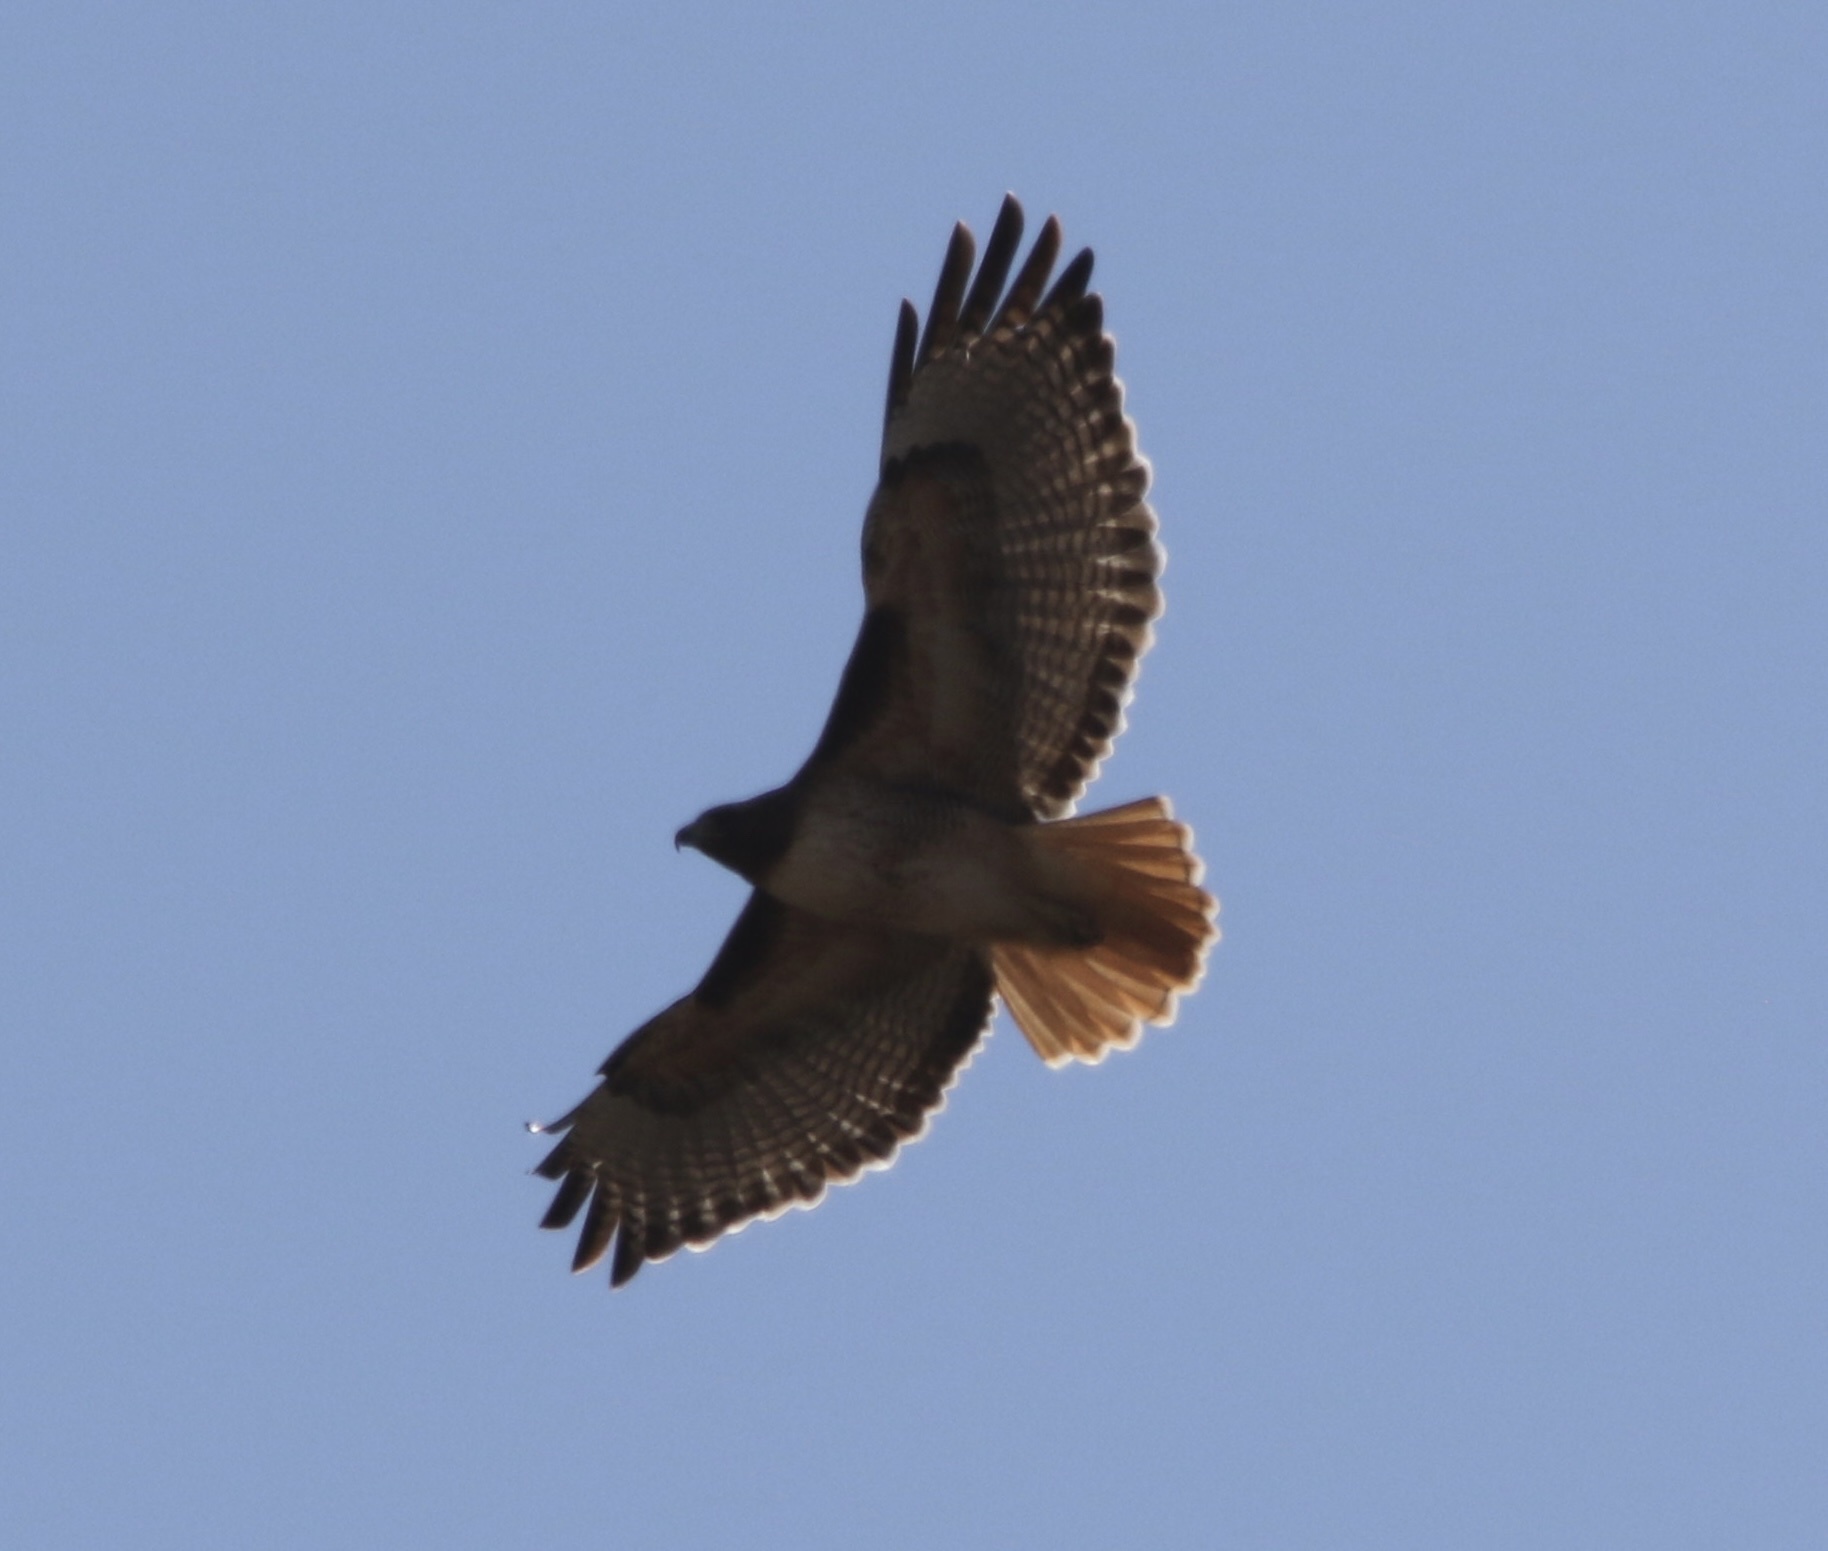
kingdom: Animalia
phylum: Chordata
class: Aves
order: Accipitriformes
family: Accipitridae
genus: Buteo
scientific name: Buteo jamaicensis
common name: Red-tailed hawk
